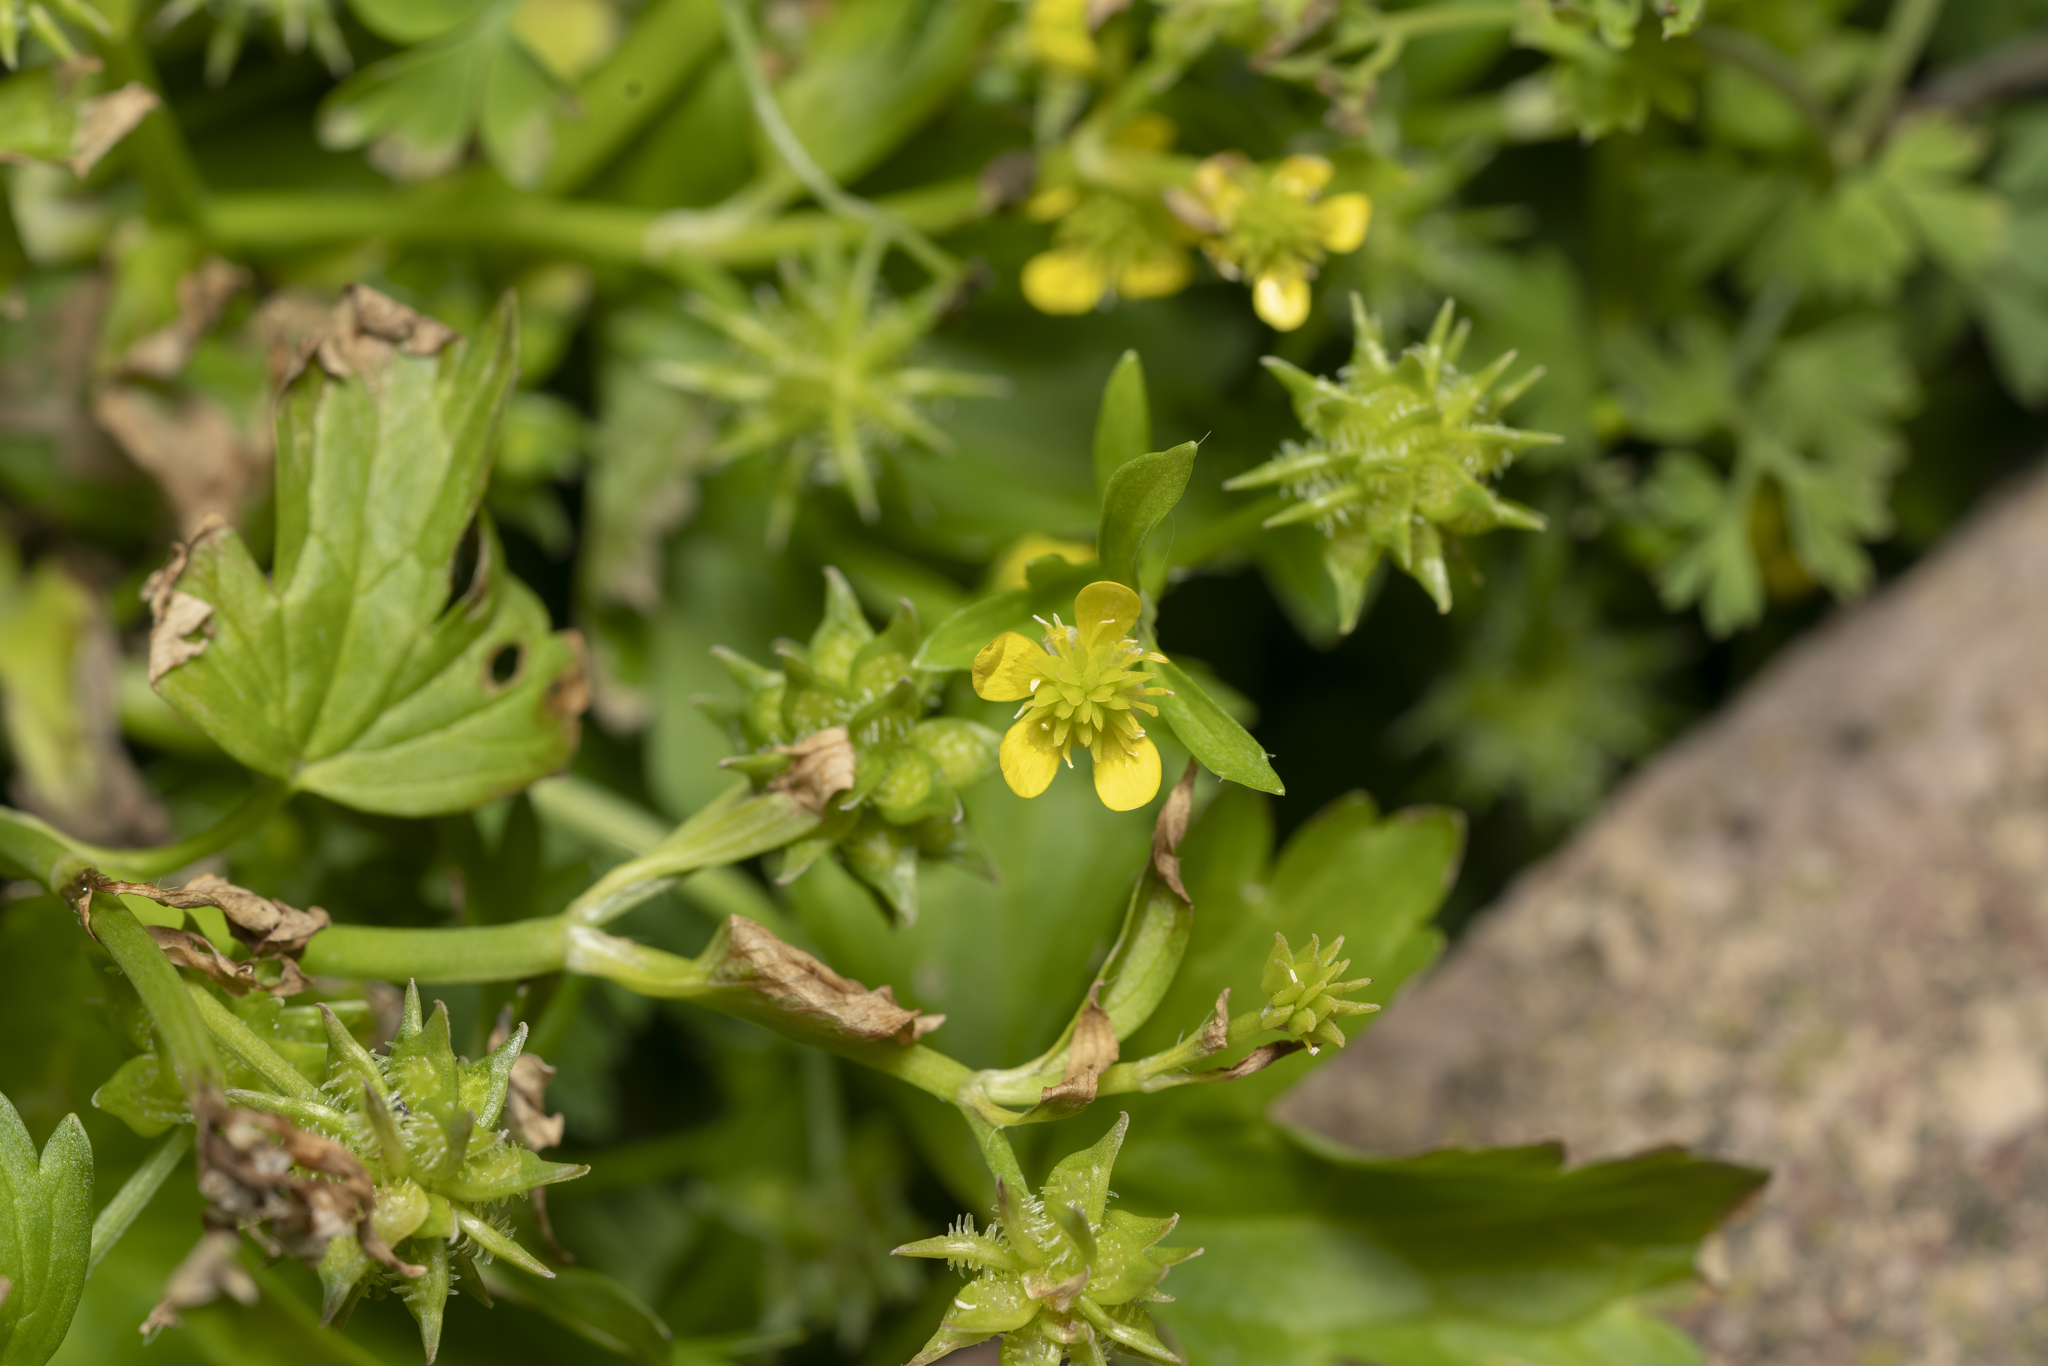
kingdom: Plantae
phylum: Tracheophyta
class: Magnoliopsida
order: Ranunculales
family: Ranunculaceae
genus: Ranunculus
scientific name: Ranunculus muricatus
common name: Rough-fruited buttercup
